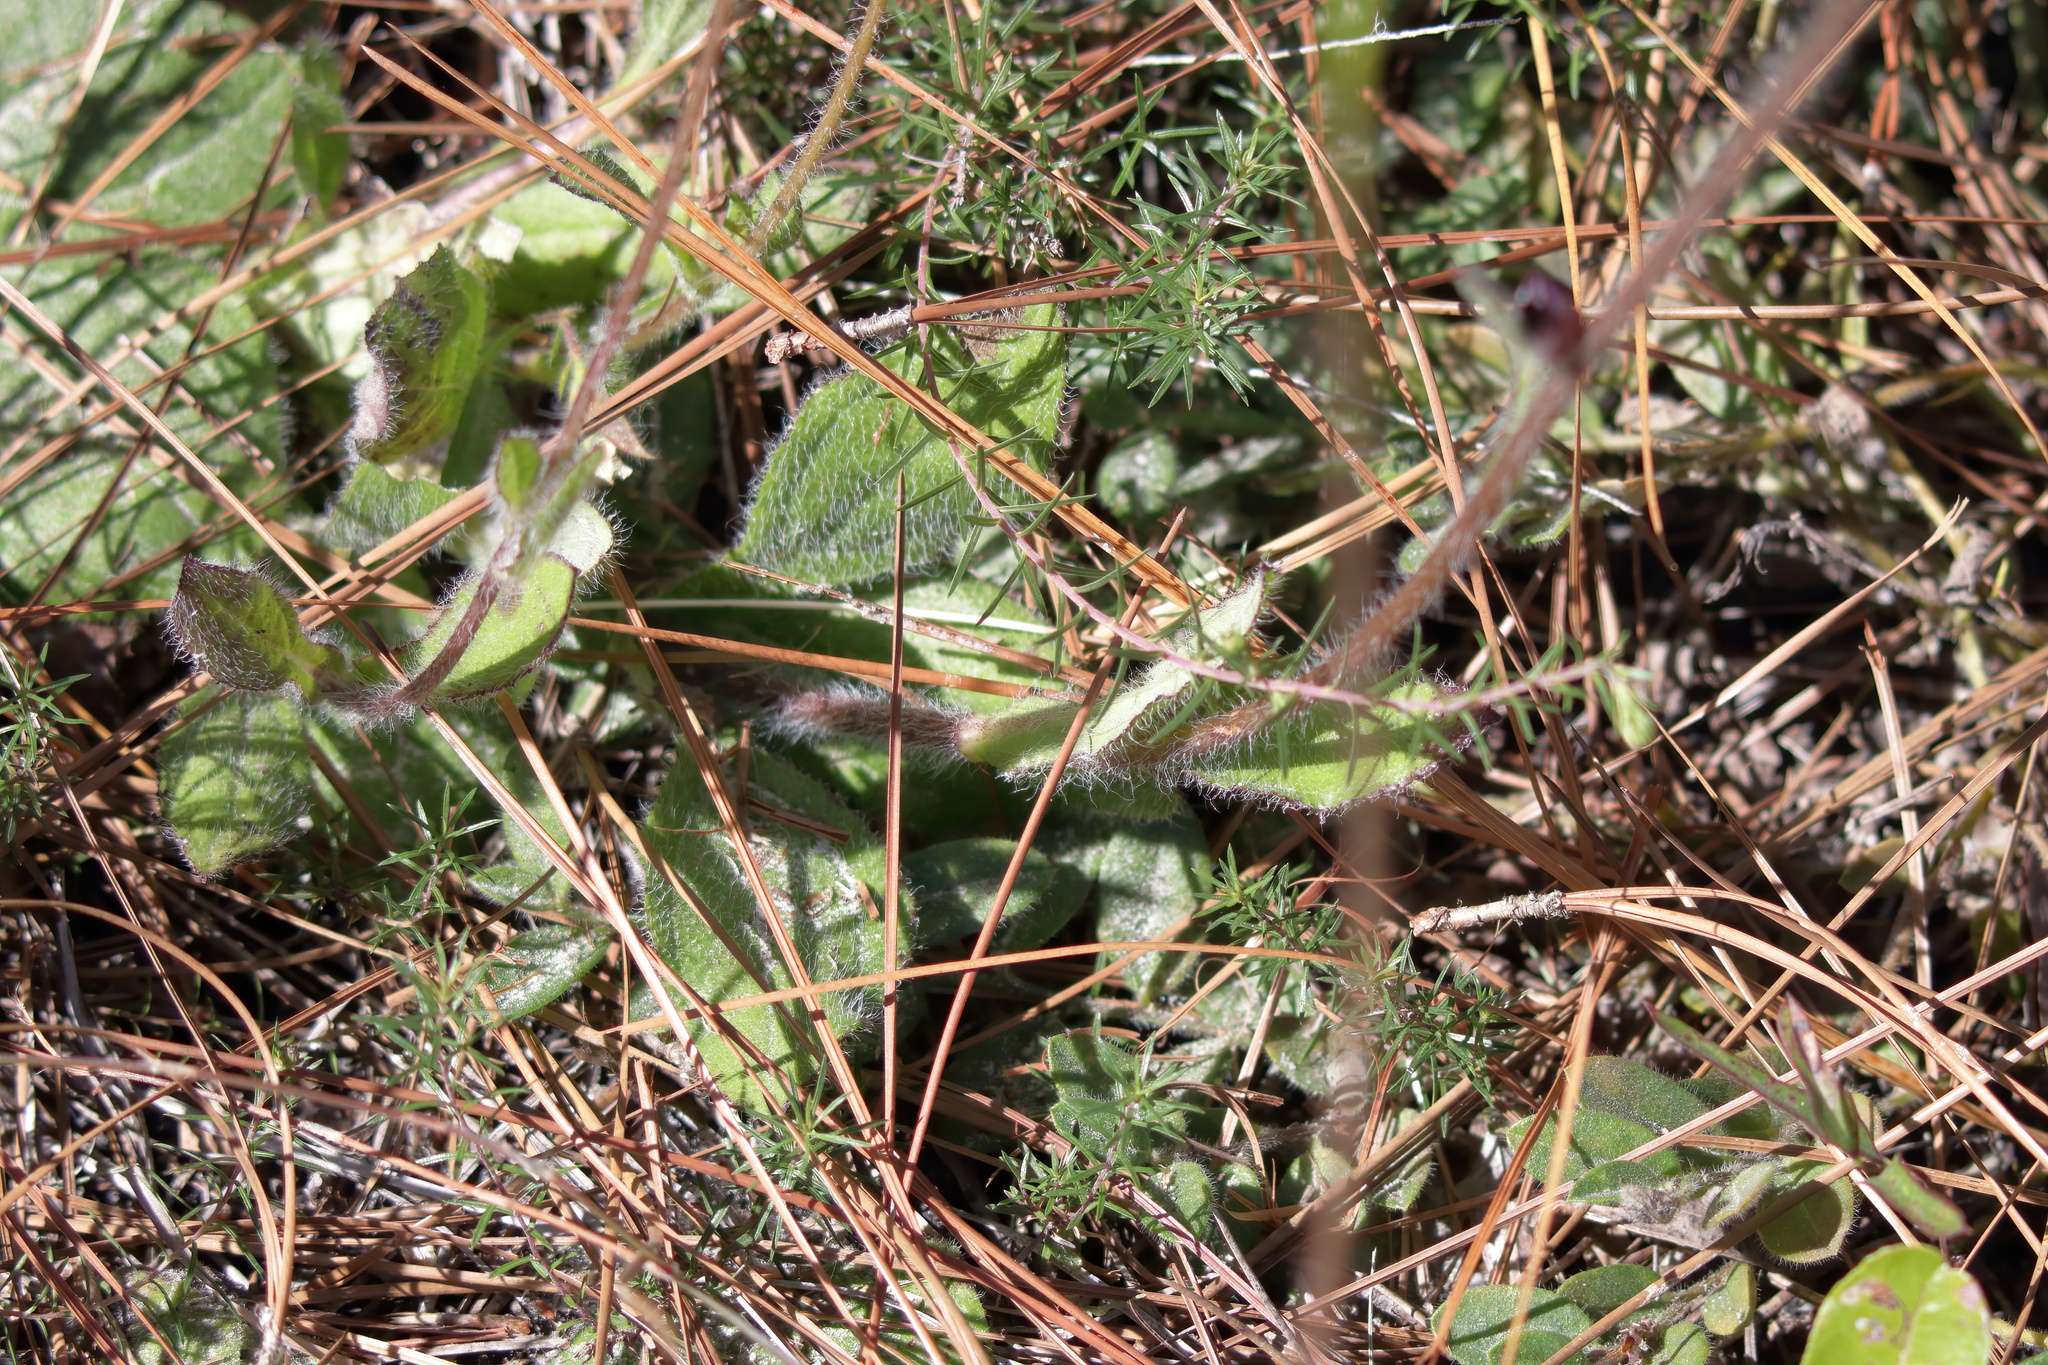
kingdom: Plantae
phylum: Tracheophyta
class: Magnoliopsida
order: Asterales
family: Asteraceae
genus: Helianthus
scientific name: Helianthus radula
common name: Pineland sunflower
